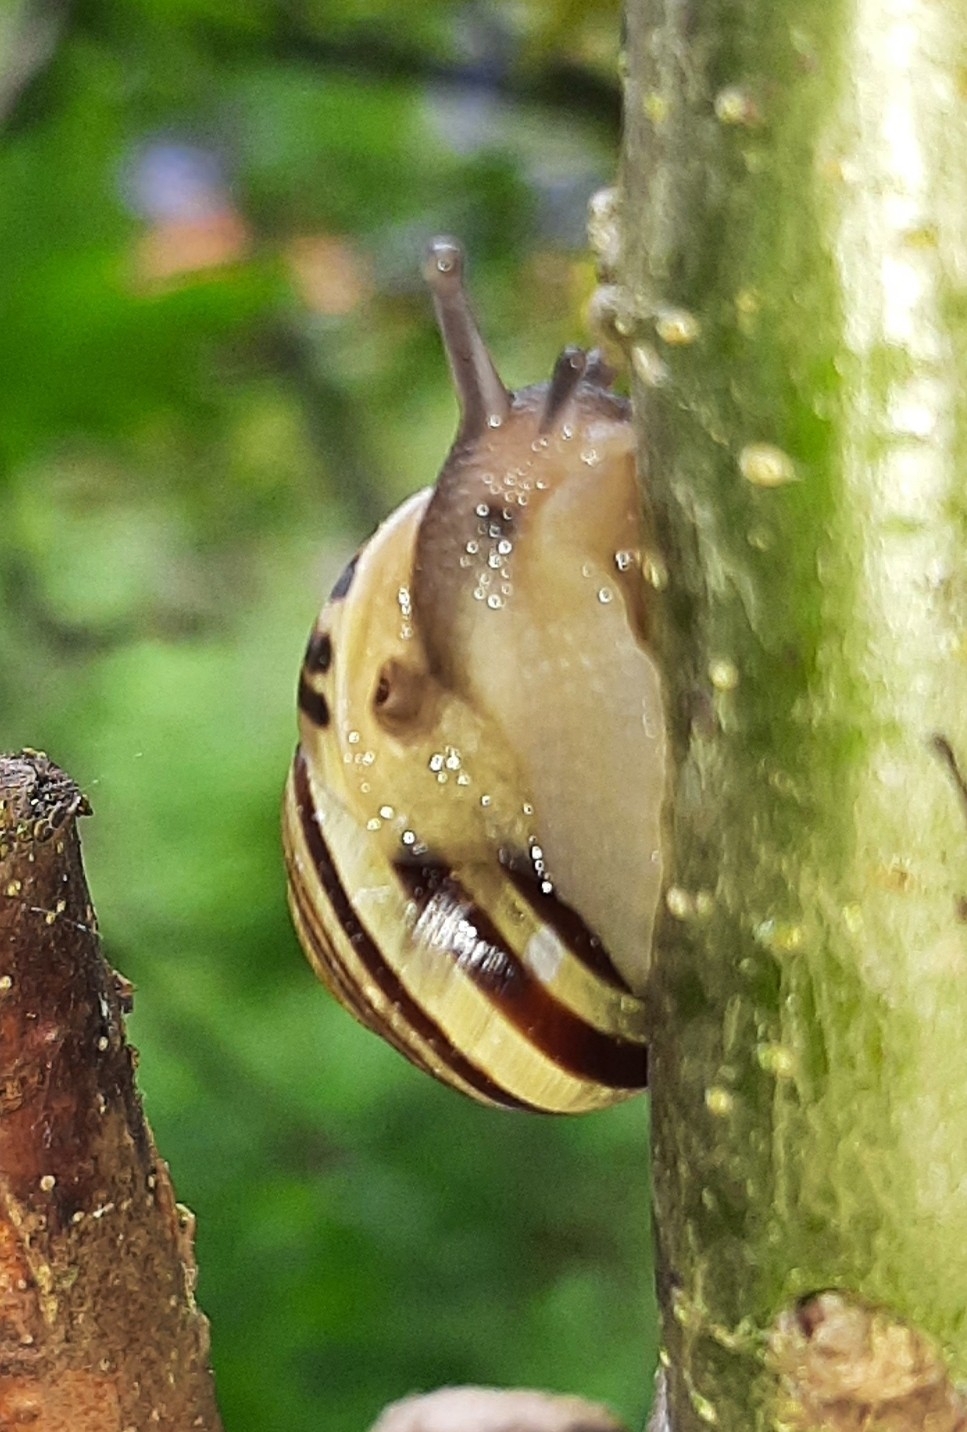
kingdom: Animalia
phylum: Mollusca
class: Gastropoda
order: Stylommatophora
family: Helicidae
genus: Cepaea
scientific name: Cepaea hortensis
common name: White-lip gardensnail
